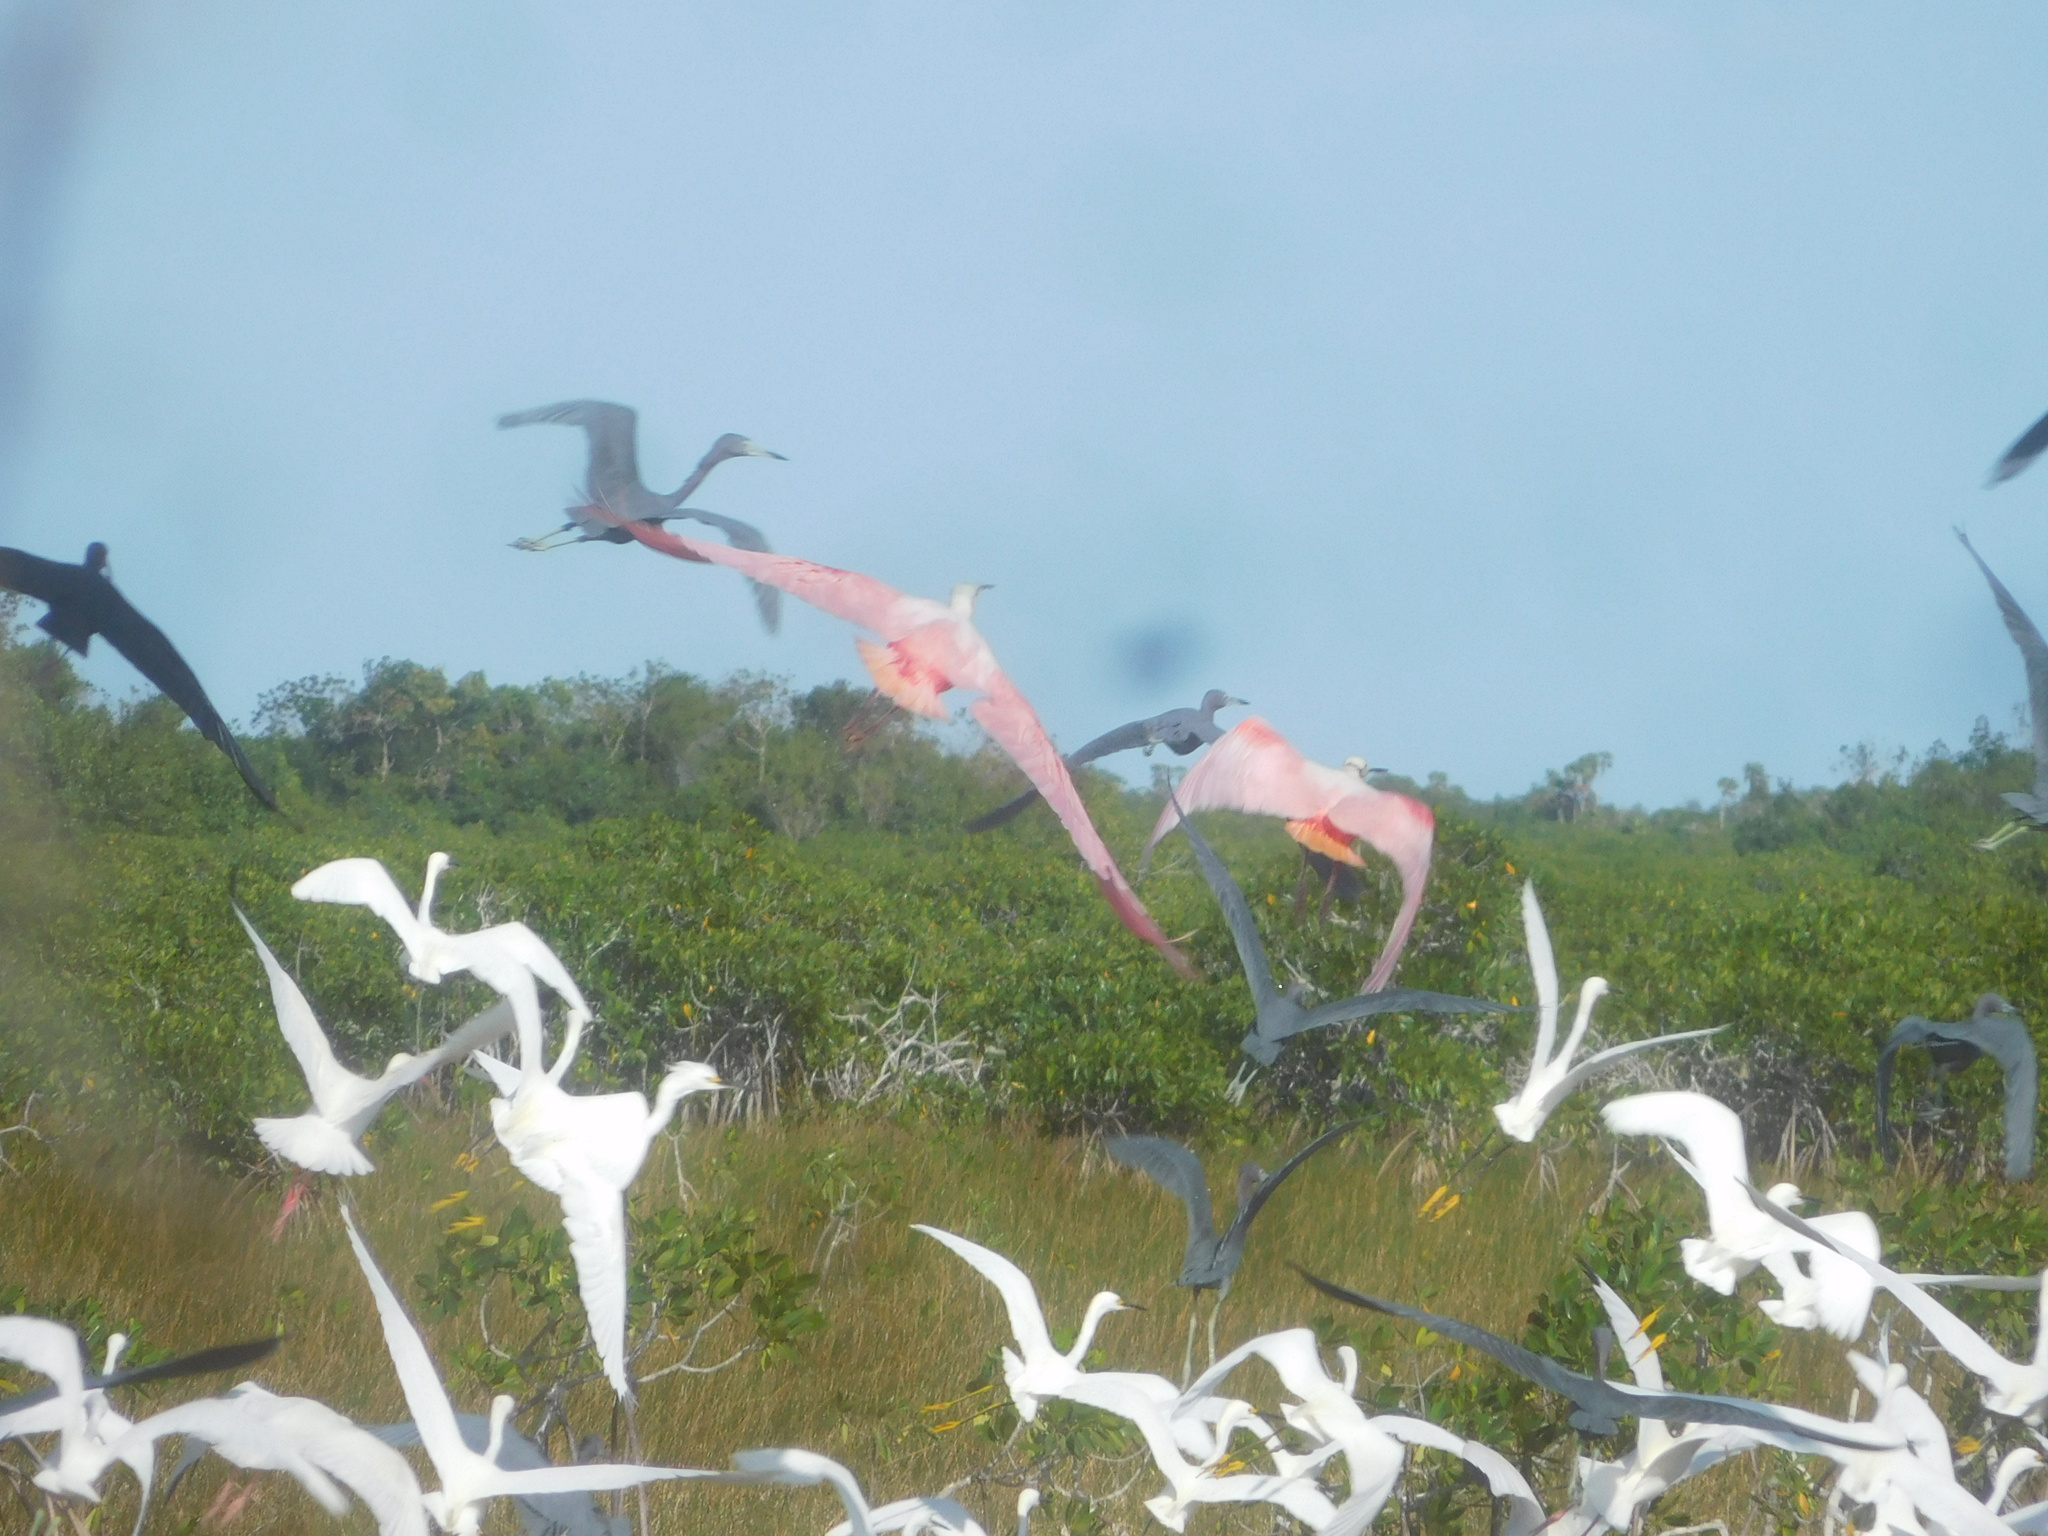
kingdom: Animalia
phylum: Chordata
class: Aves
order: Pelecaniformes
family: Threskiornithidae
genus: Platalea
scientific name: Platalea ajaja
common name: Roseate spoonbill
